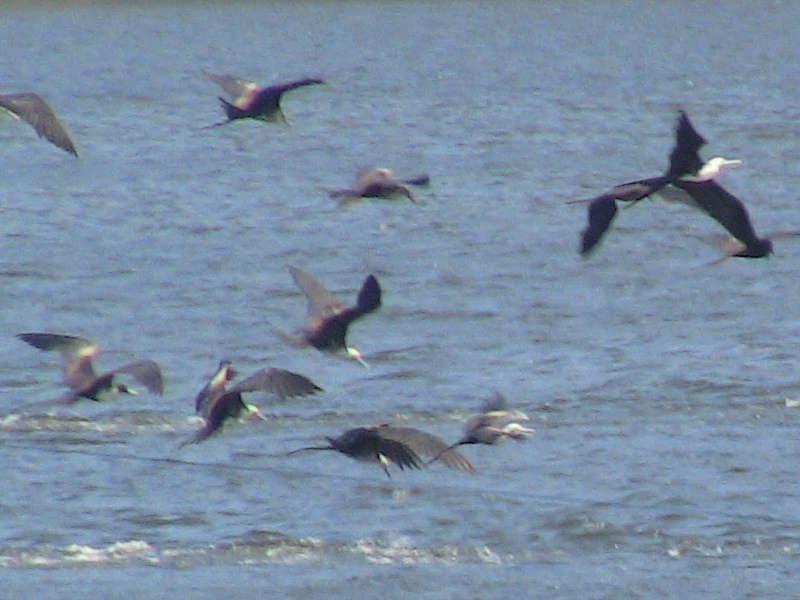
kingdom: Animalia
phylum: Chordata
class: Aves
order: Suliformes
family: Fregatidae
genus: Fregata
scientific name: Fregata magnificens
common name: Magnificent frigatebird
